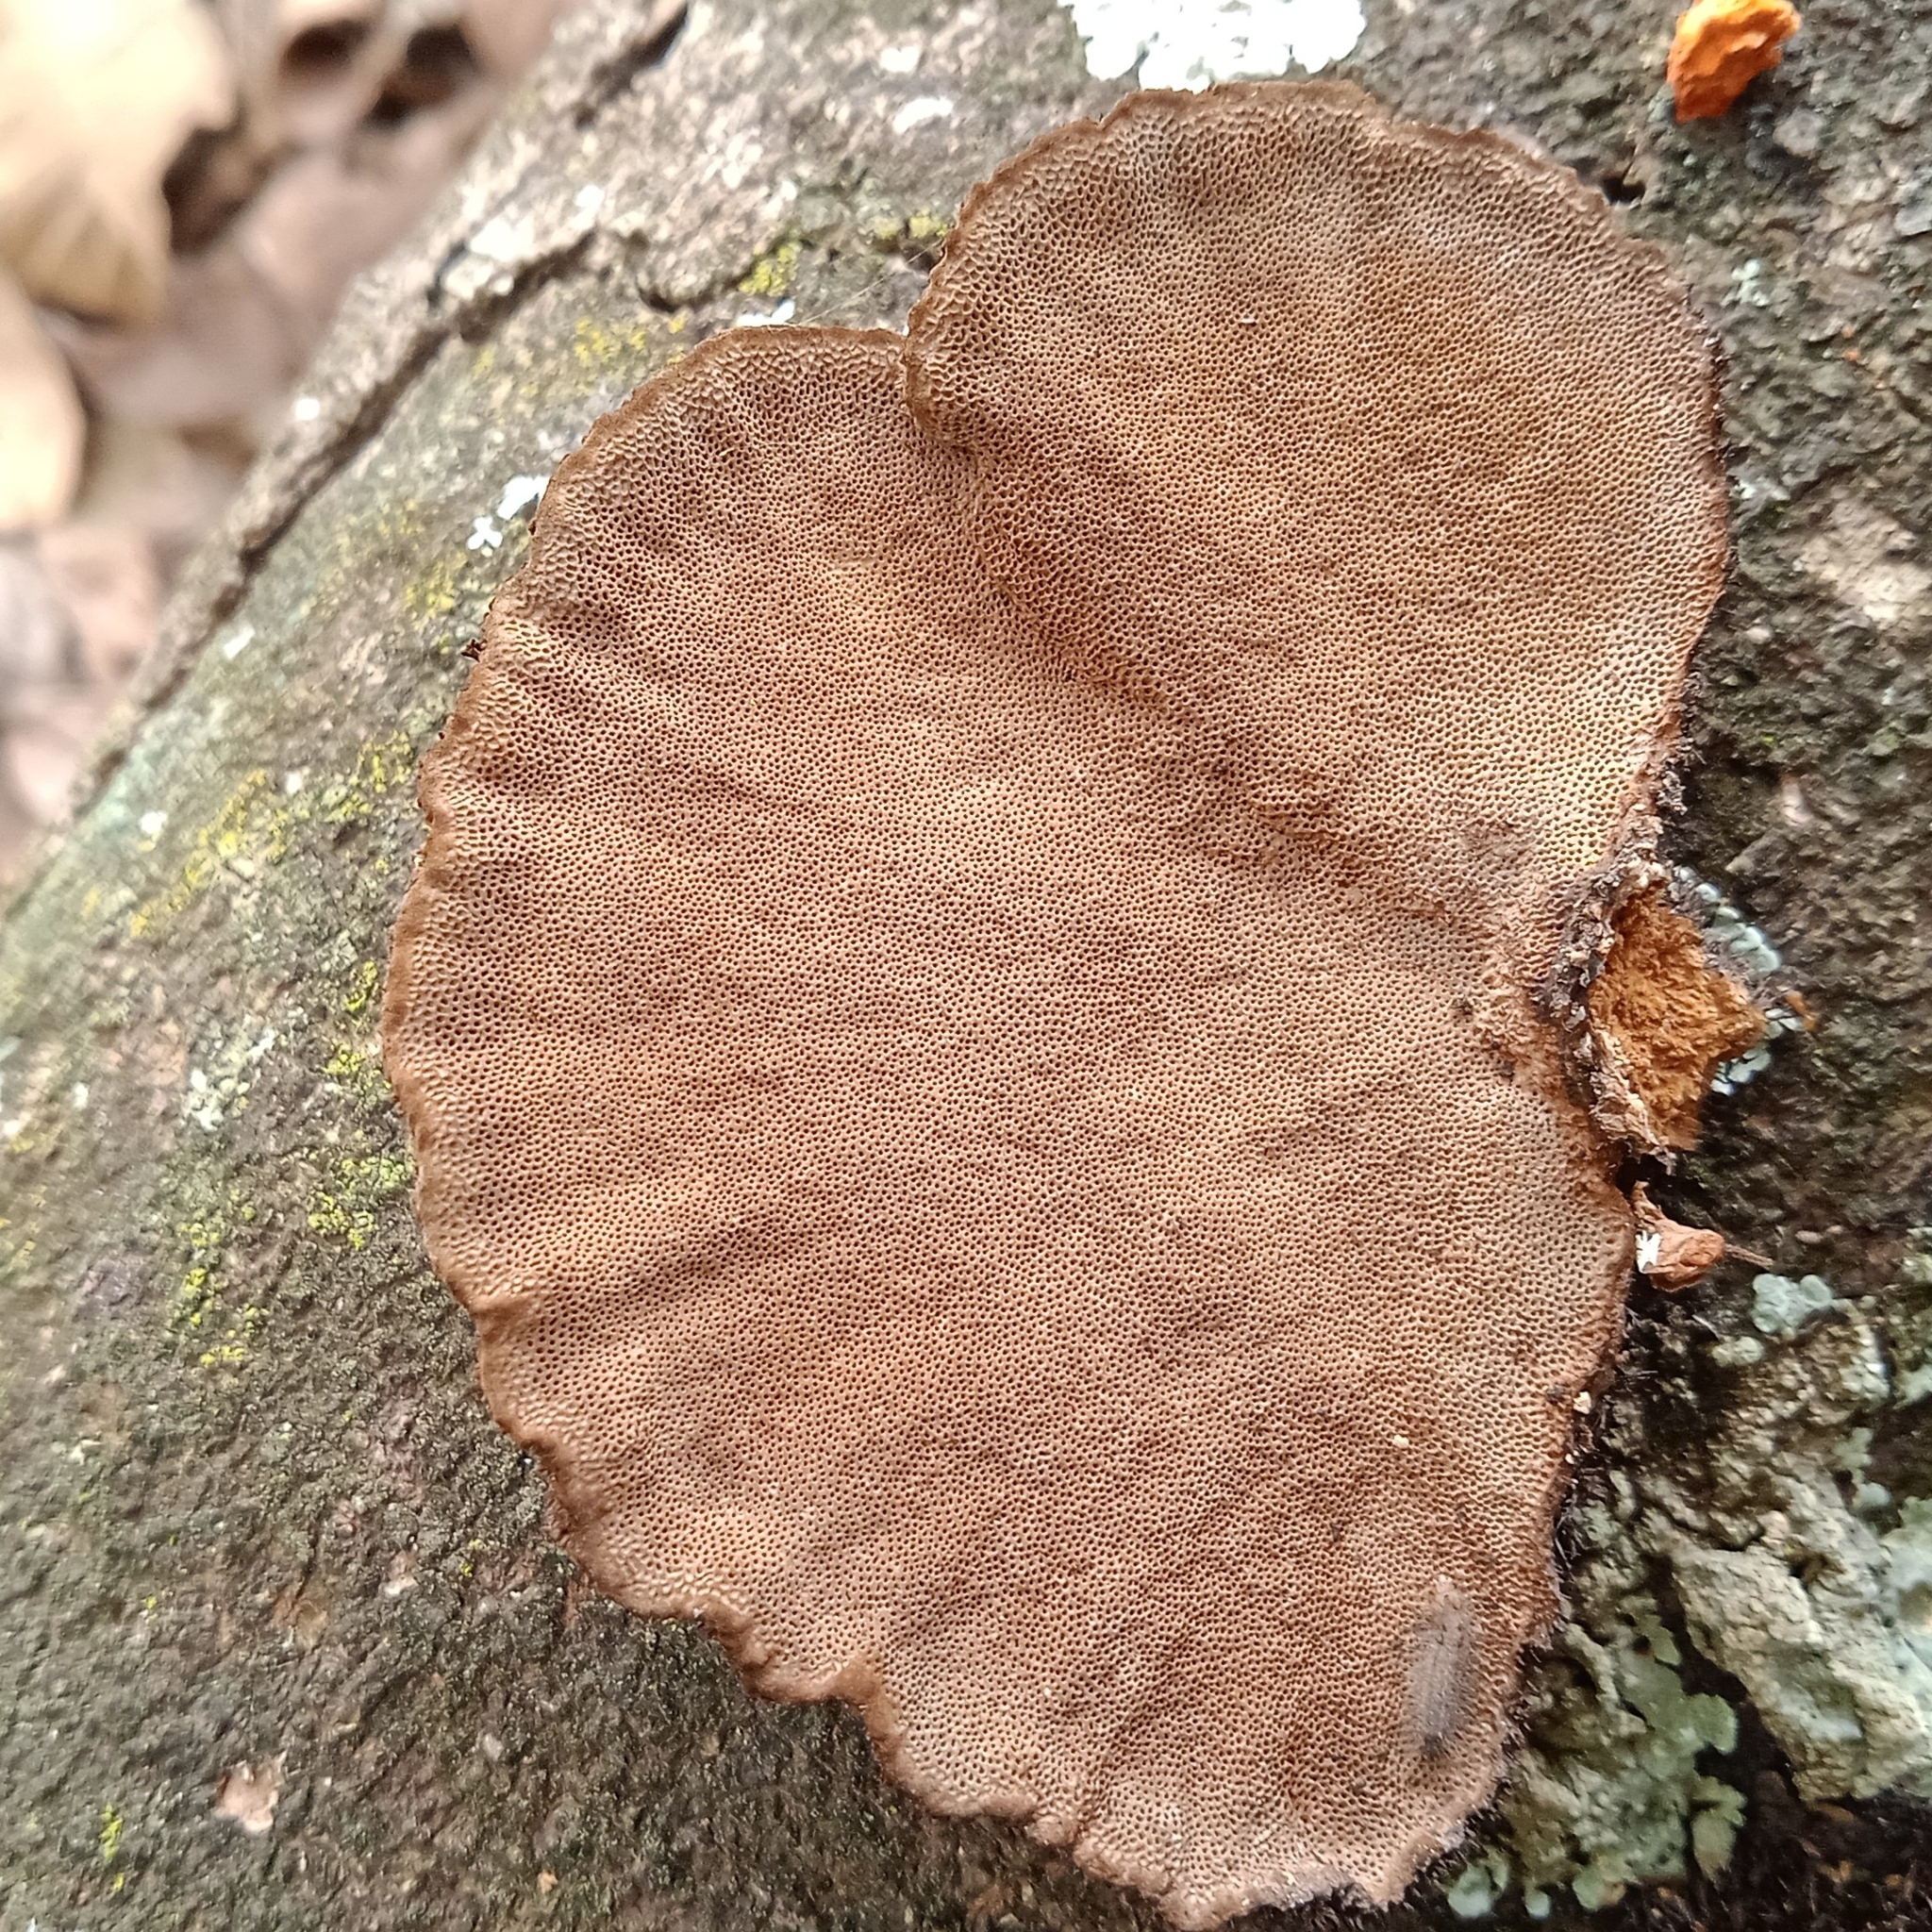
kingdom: Fungi
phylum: Basidiomycota
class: Agaricomycetes
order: Polyporales
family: Cerrenaceae
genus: Cerrena
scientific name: Cerrena hydnoides
